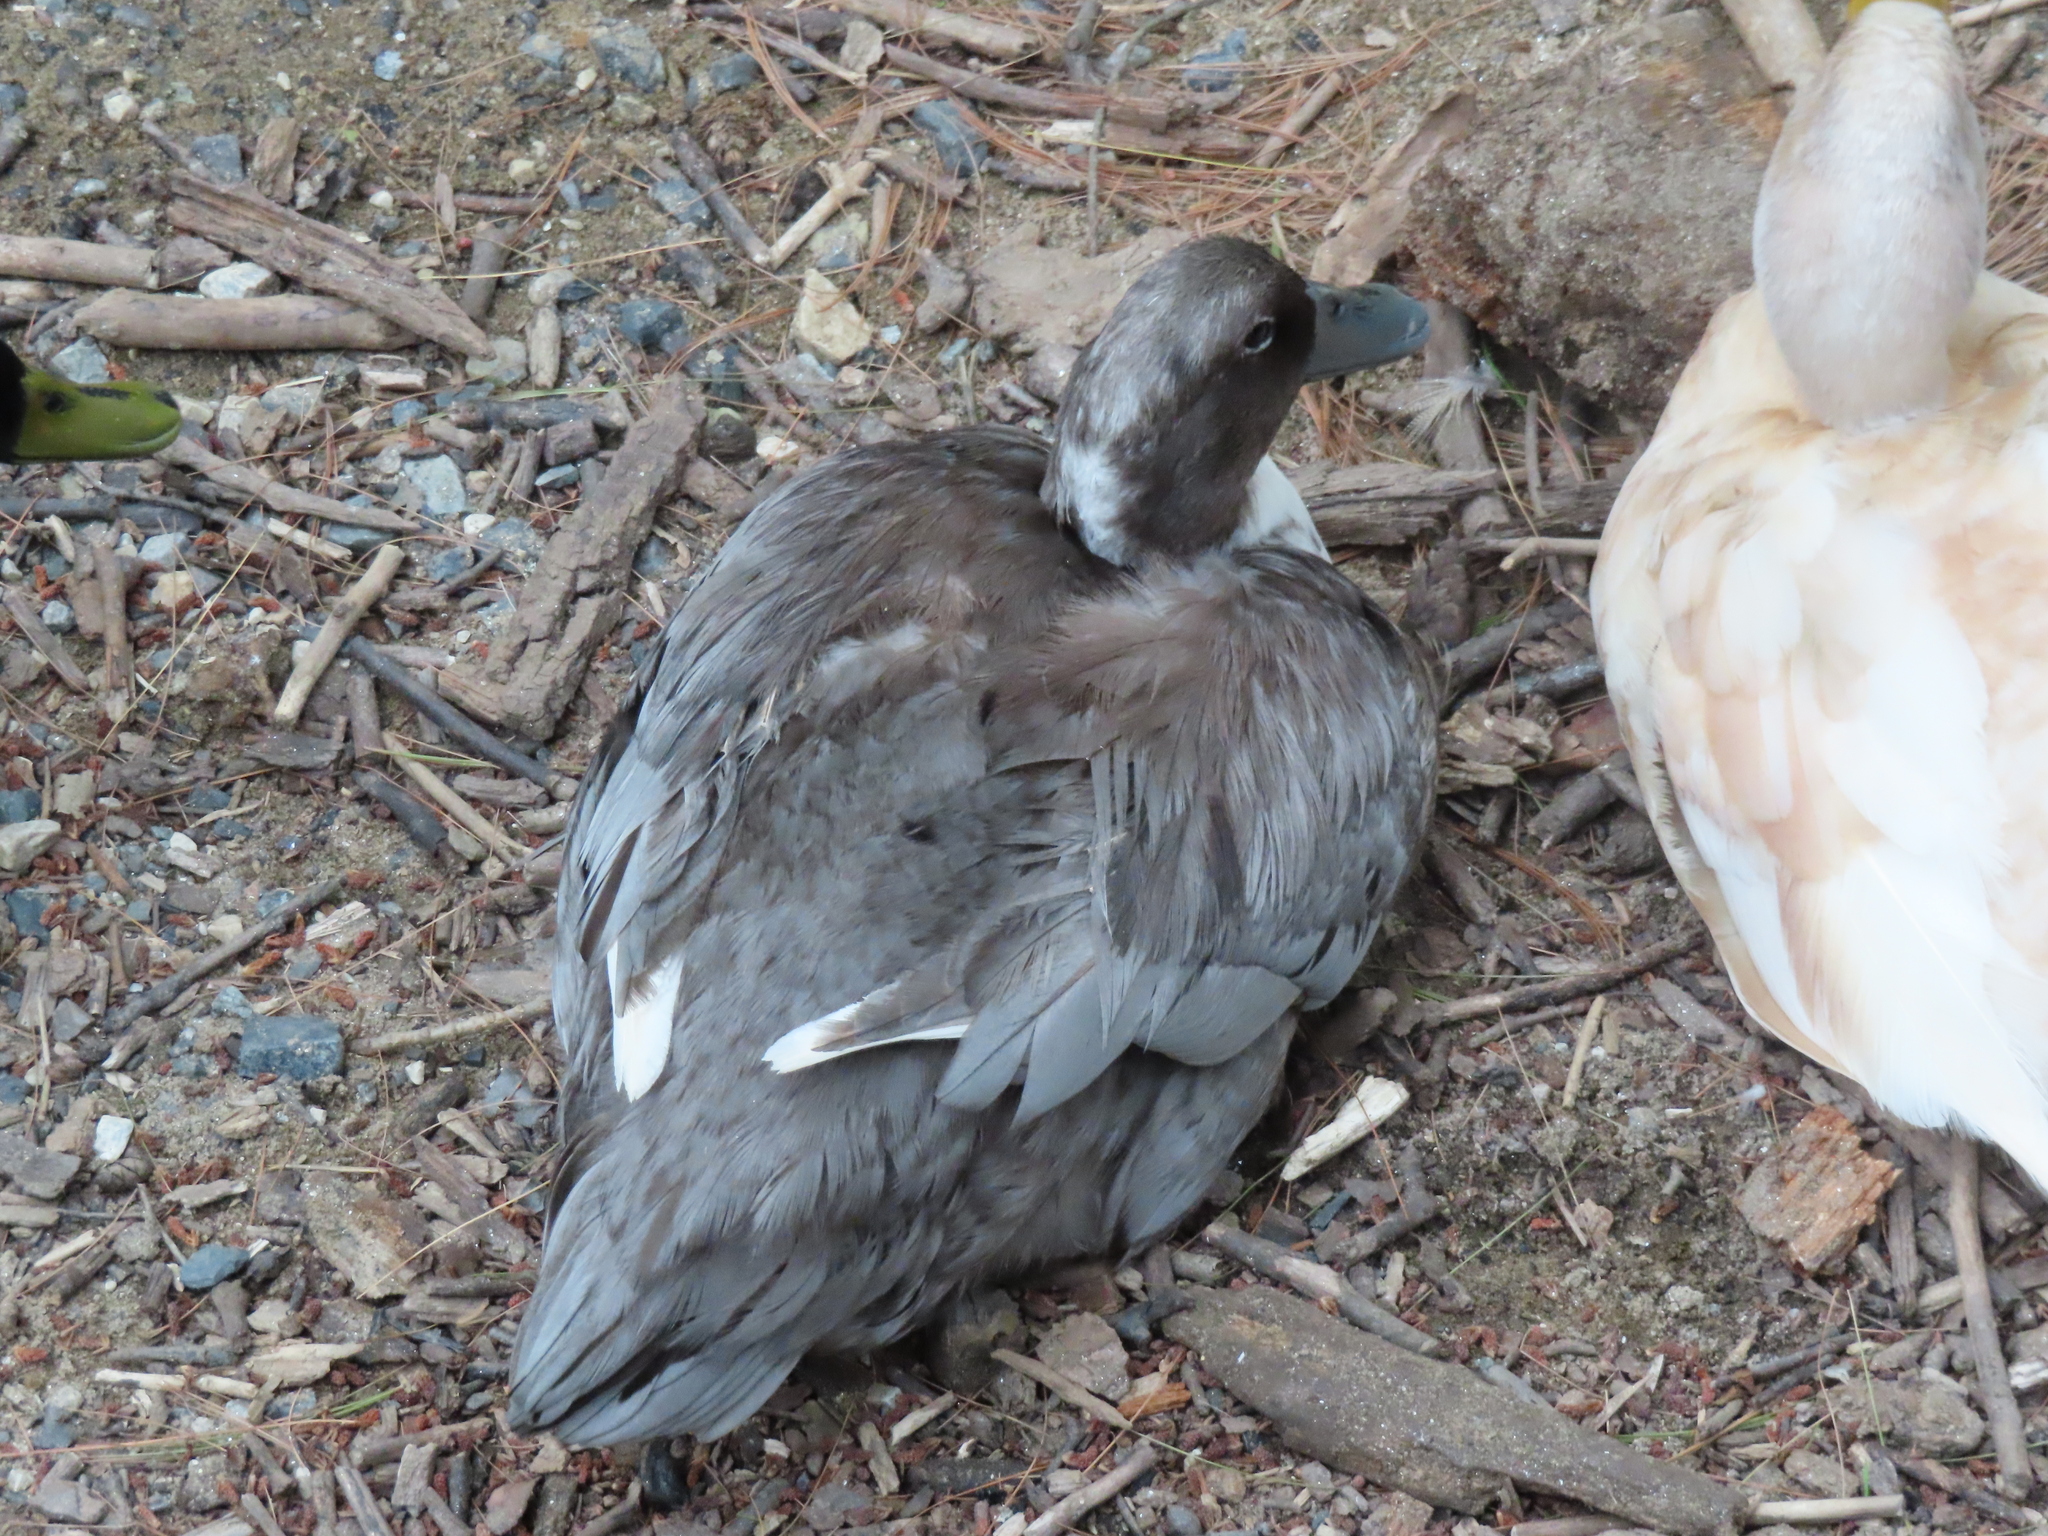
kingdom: Animalia
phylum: Chordata
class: Aves
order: Anseriformes
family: Anatidae
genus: Anas
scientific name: Anas platyrhynchos
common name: Mallard
